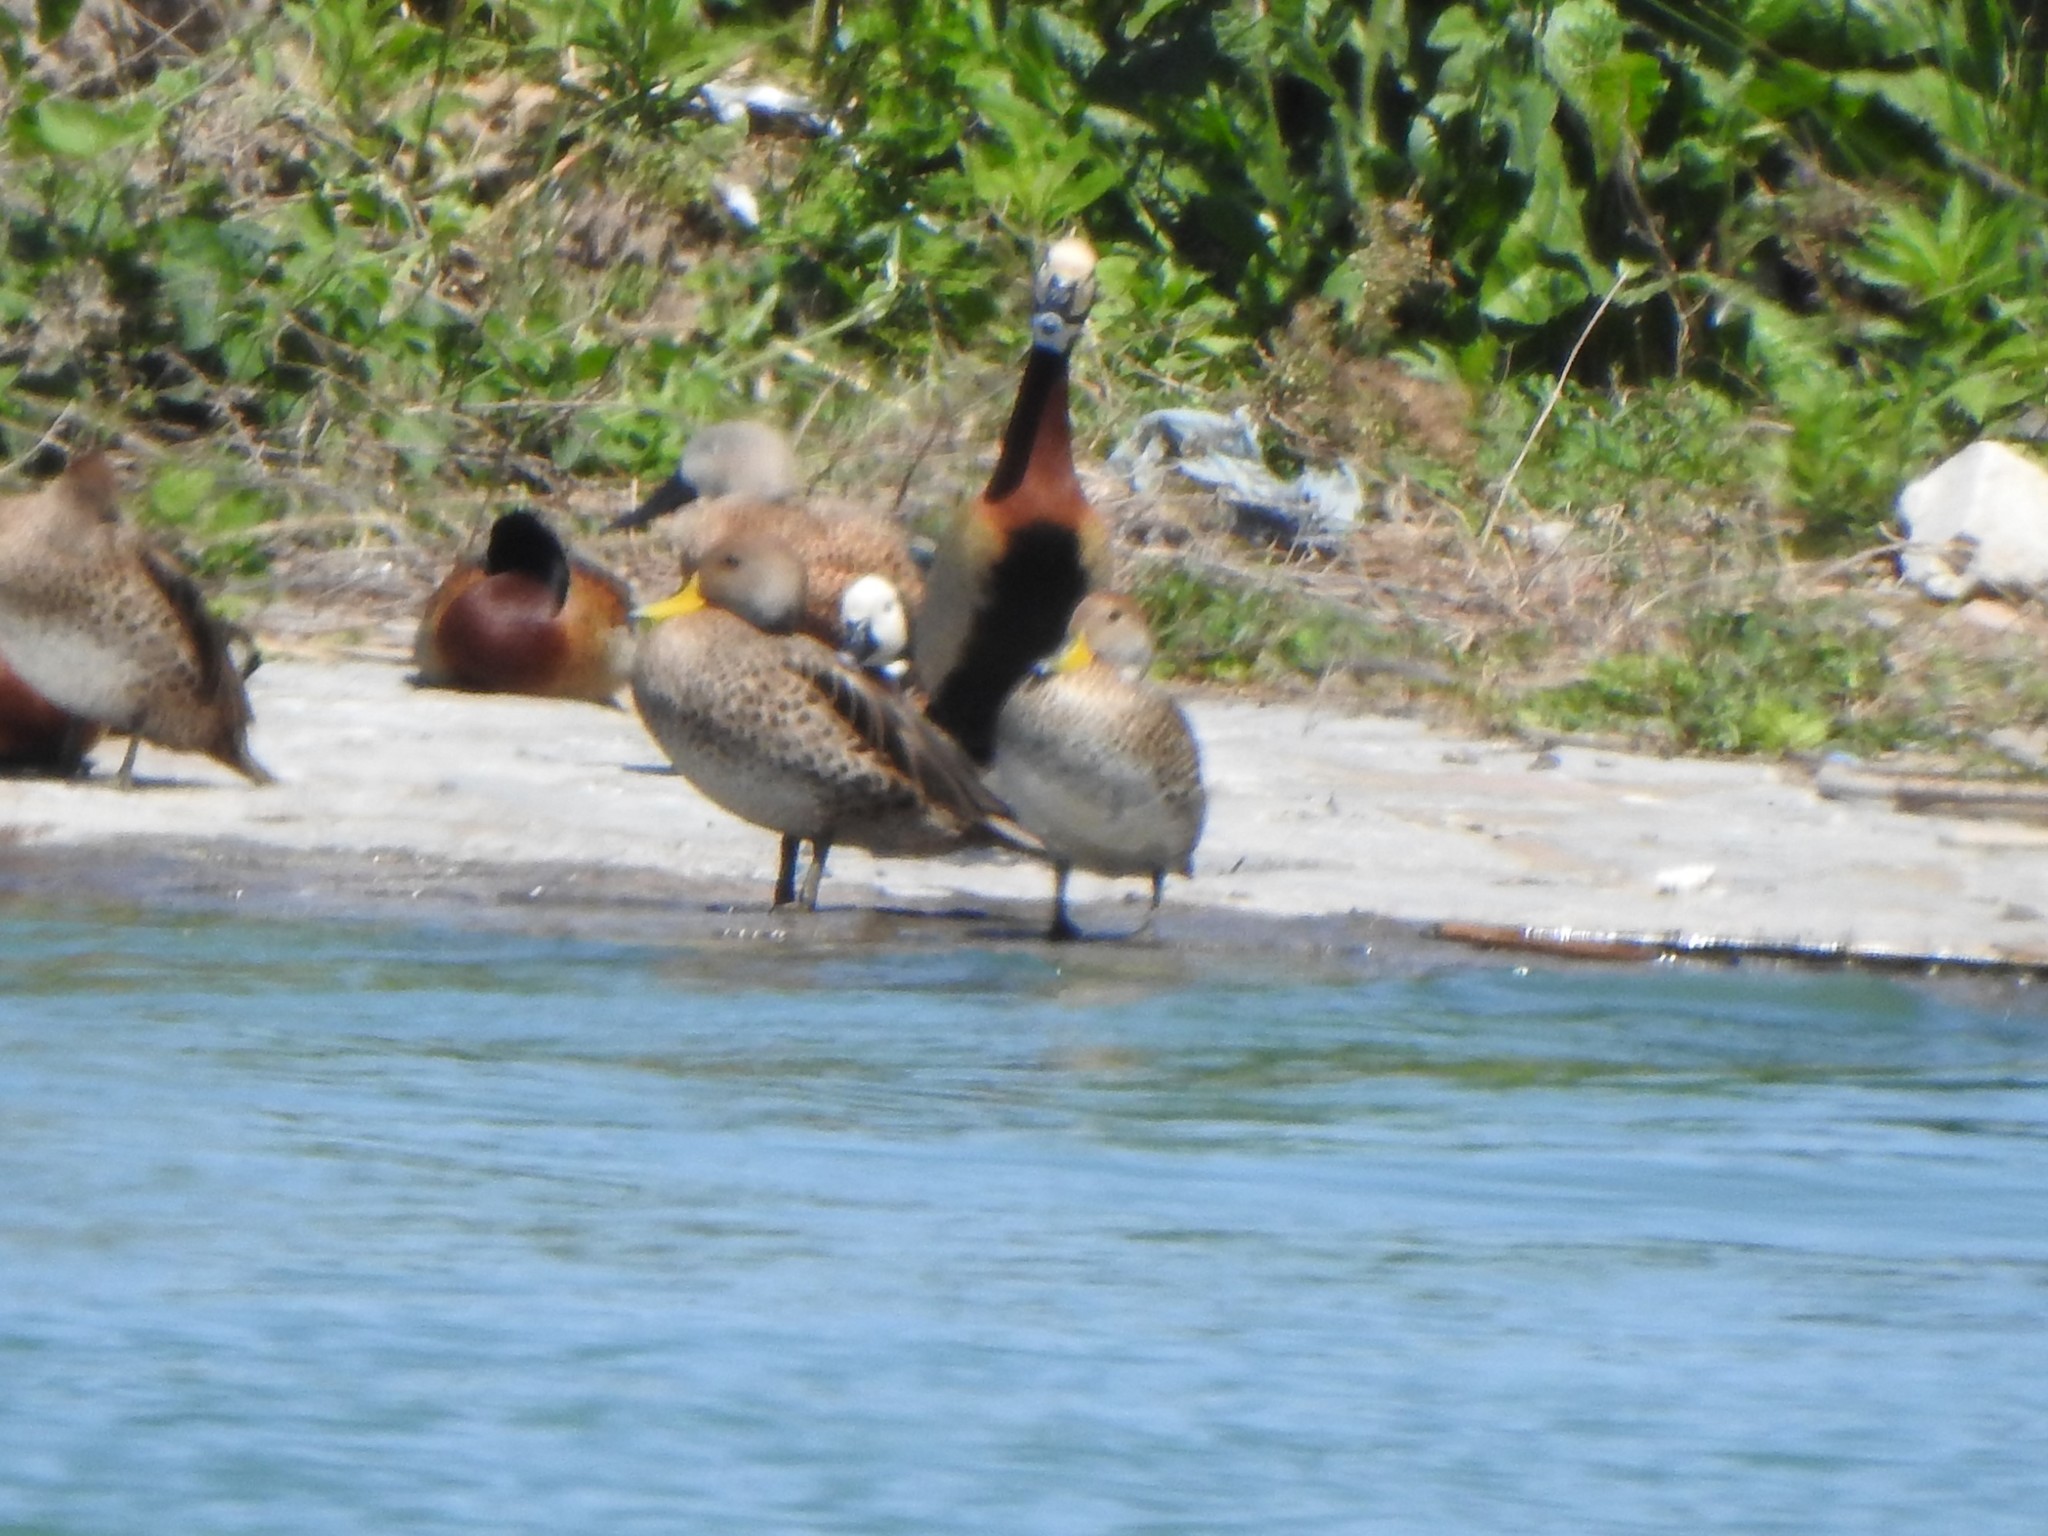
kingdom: Animalia
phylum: Chordata
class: Aves
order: Anseriformes
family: Anatidae
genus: Dendrocygna
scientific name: Dendrocygna viduata
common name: White-faced whistling duck
